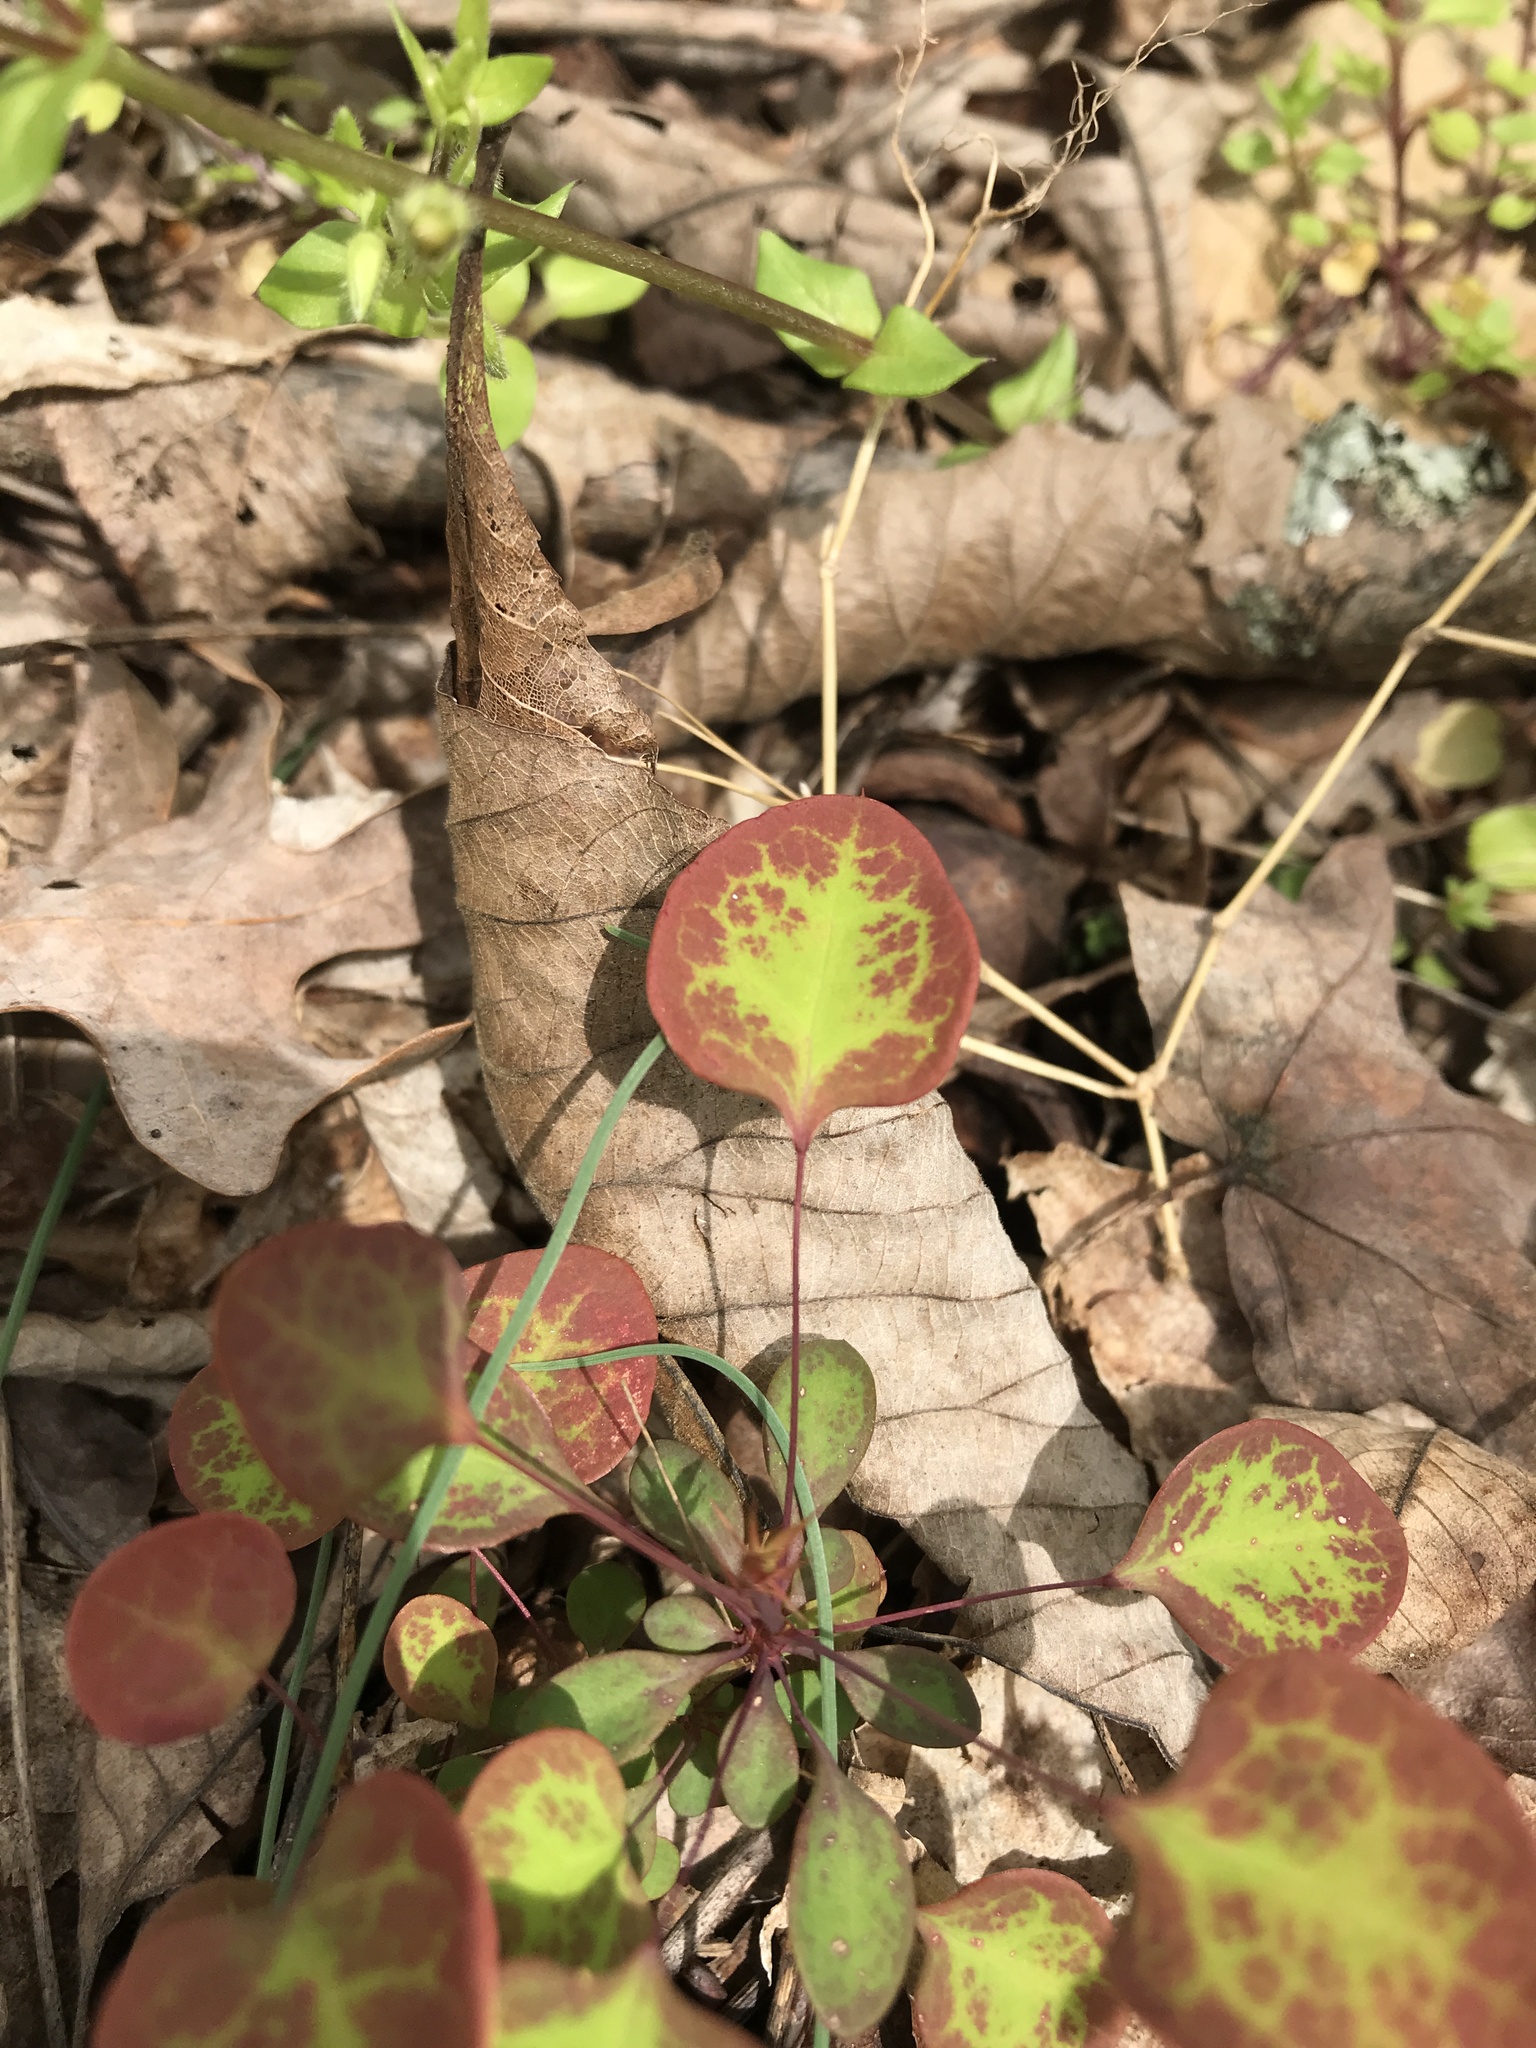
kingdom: Plantae
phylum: Tracheophyta
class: Magnoliopsida
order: Ranunculales
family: Berberidaceae
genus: Berberis
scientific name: Berberis thunbergii
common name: Japanese barberry
